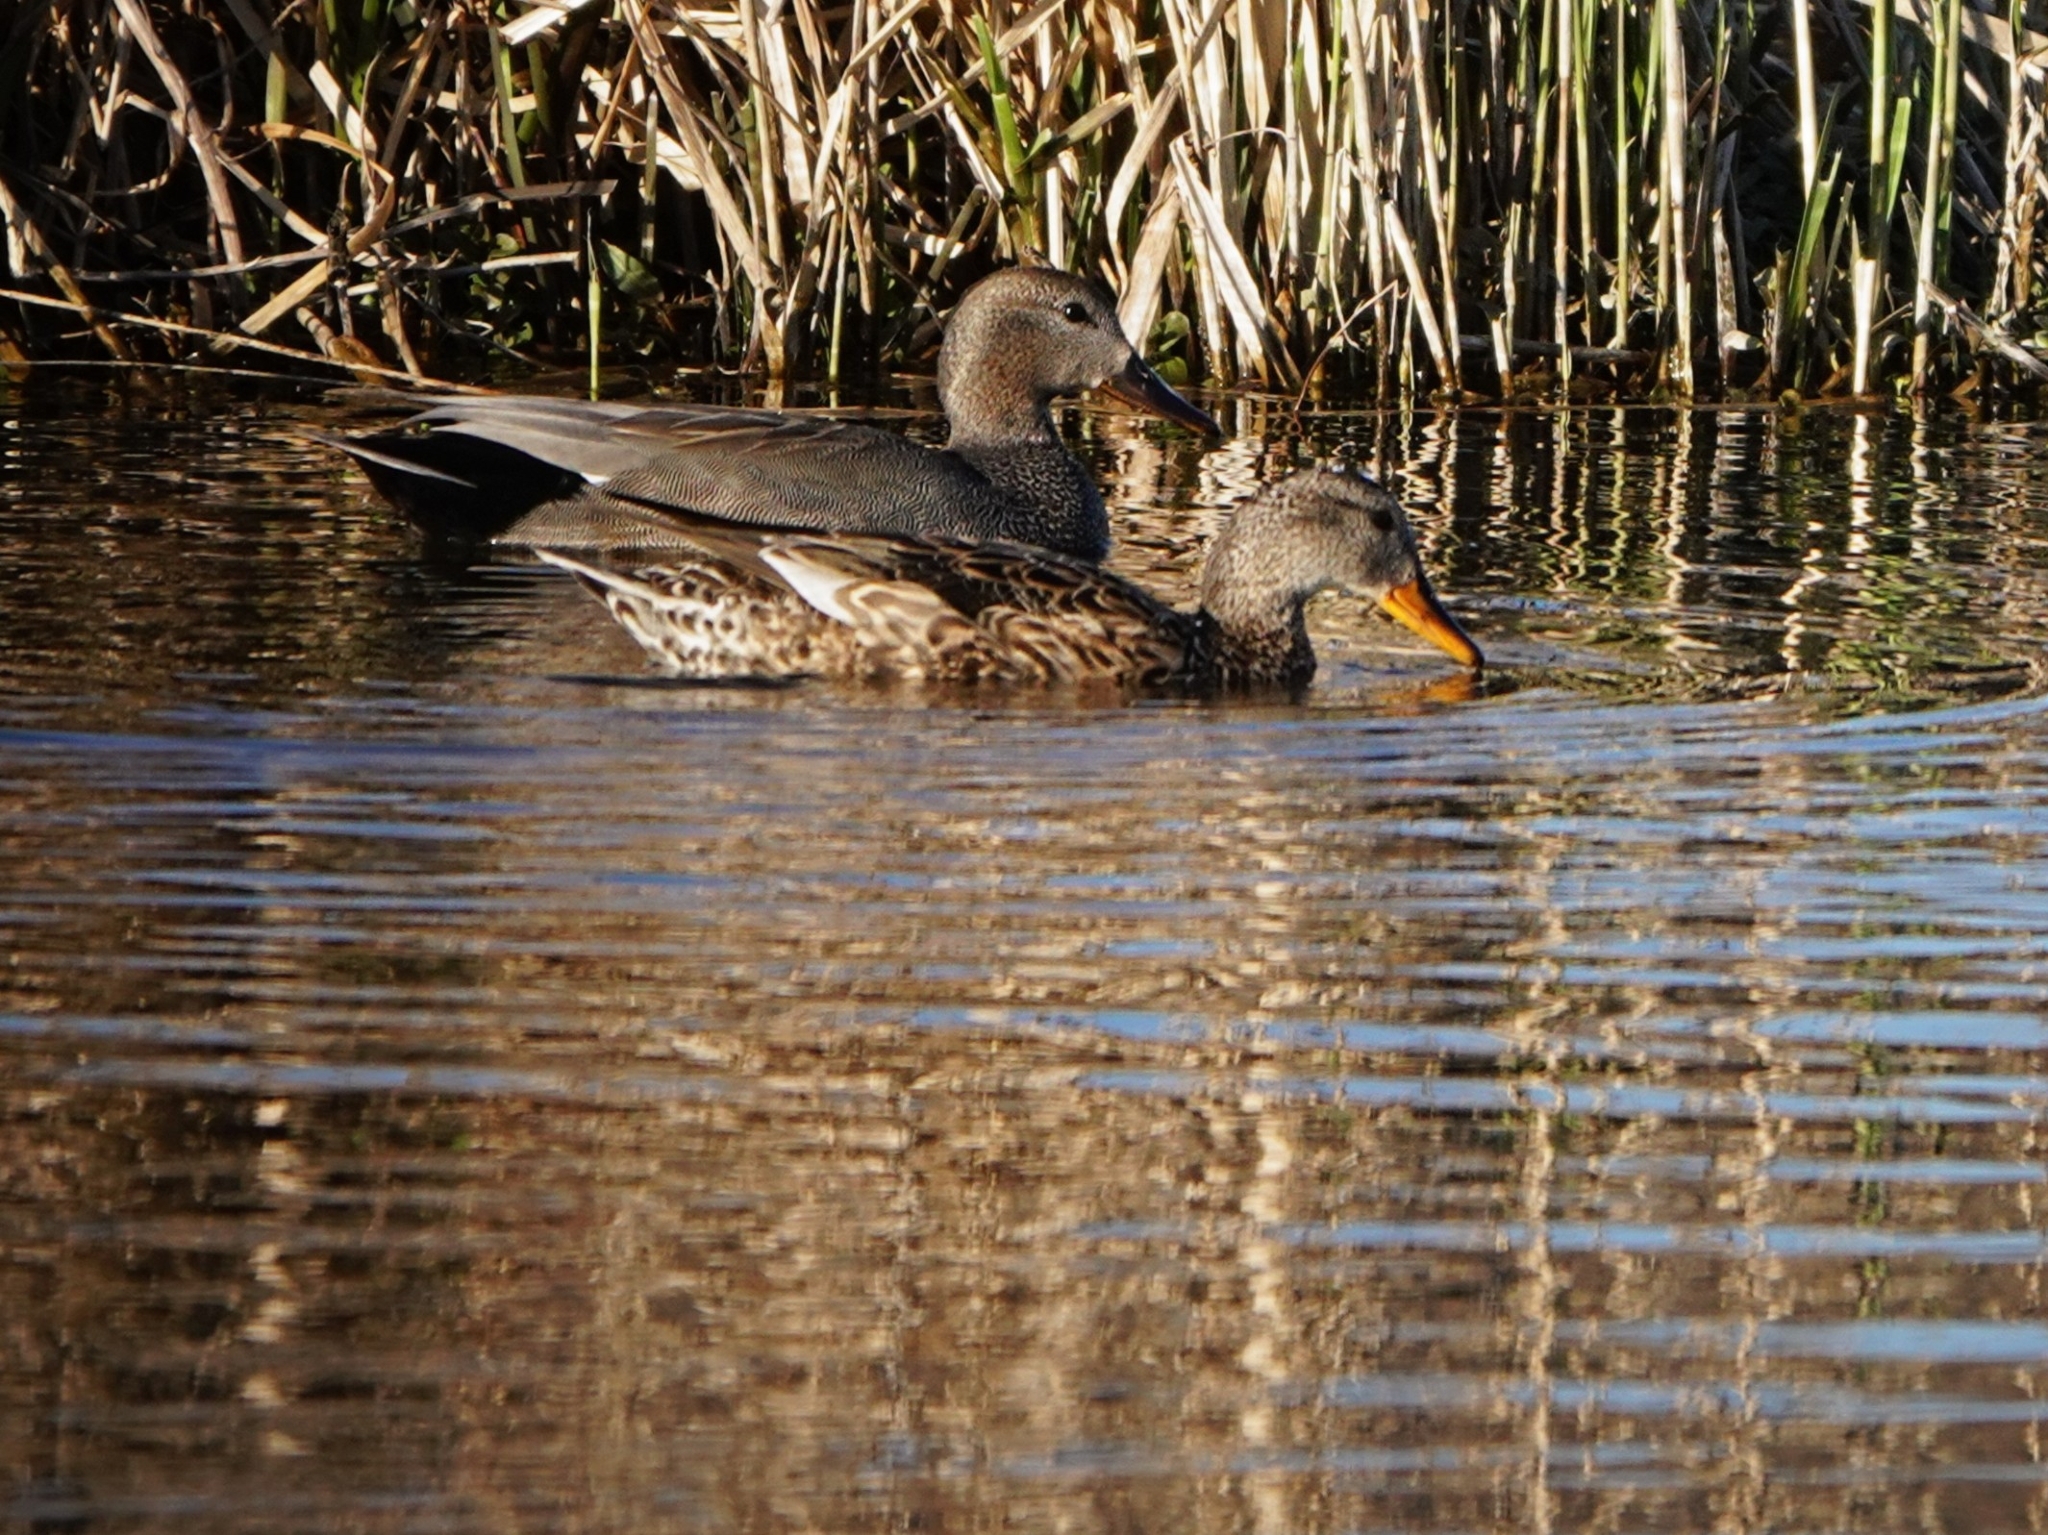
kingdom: Animalia
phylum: Chordata
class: Aves
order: Anseriformes
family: Anatidae
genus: Mareca
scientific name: Mareca strepera
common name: Gadwall
